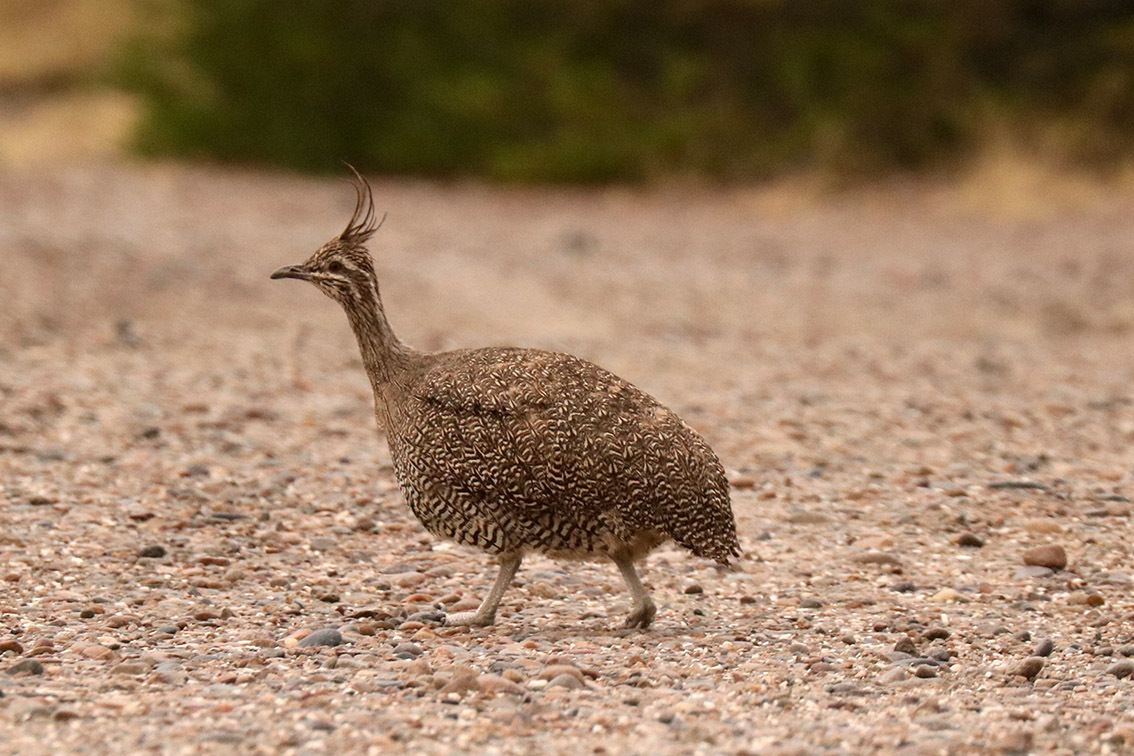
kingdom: Animalia
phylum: Chordata
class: Aves
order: Tinamiformes
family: Tinamidae
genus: Eudromia
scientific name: Eudromia elegans
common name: Elegant crested tinamou
